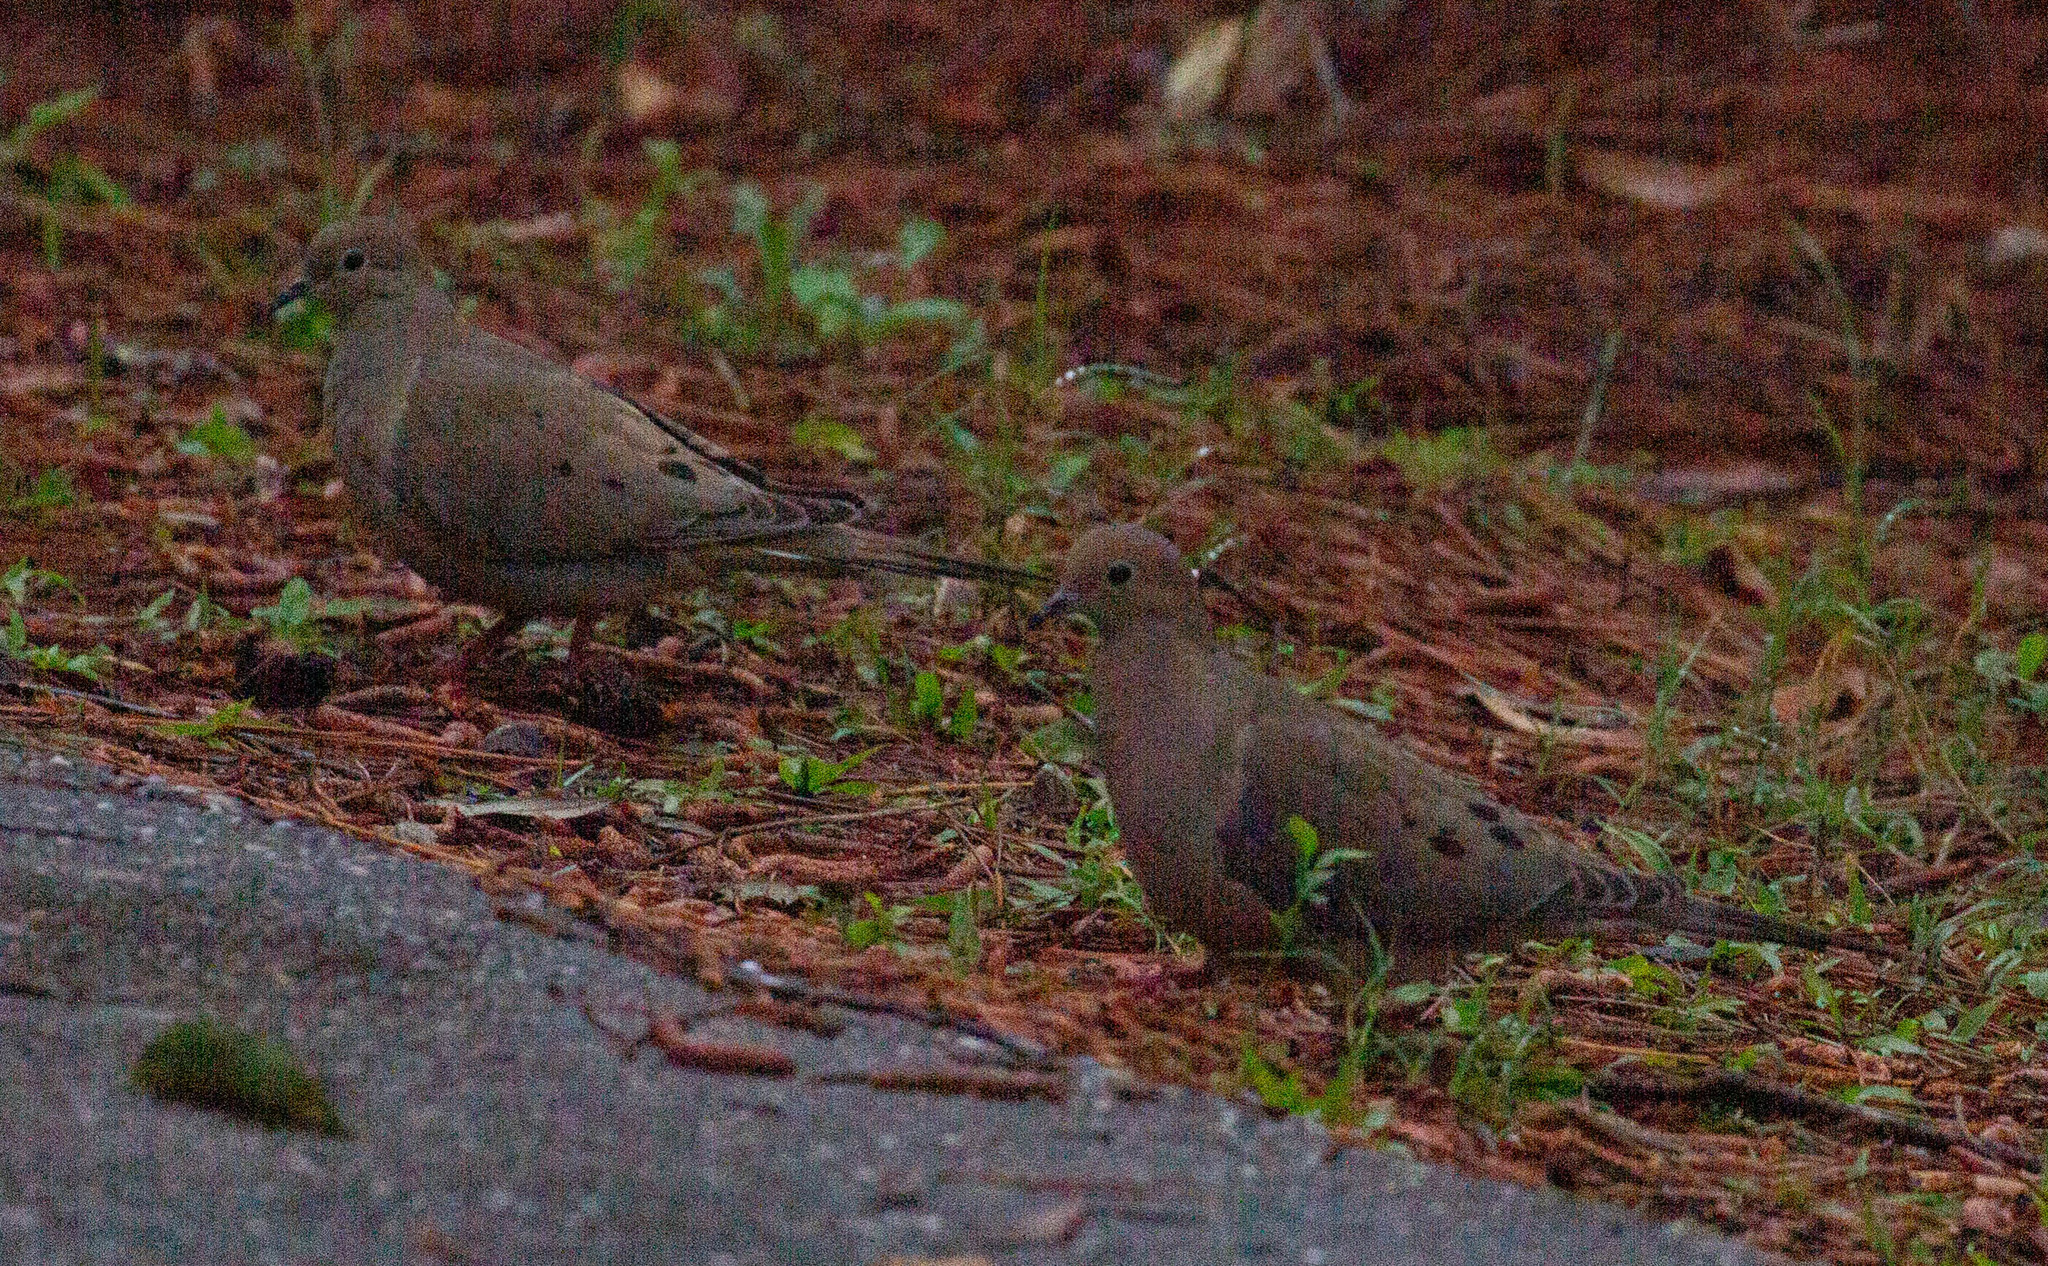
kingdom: Animalia
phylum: Chordata
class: Aves
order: Columbiformes
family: Columbidae
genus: Zenaida
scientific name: Zenaida macroura
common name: Mourning dove
